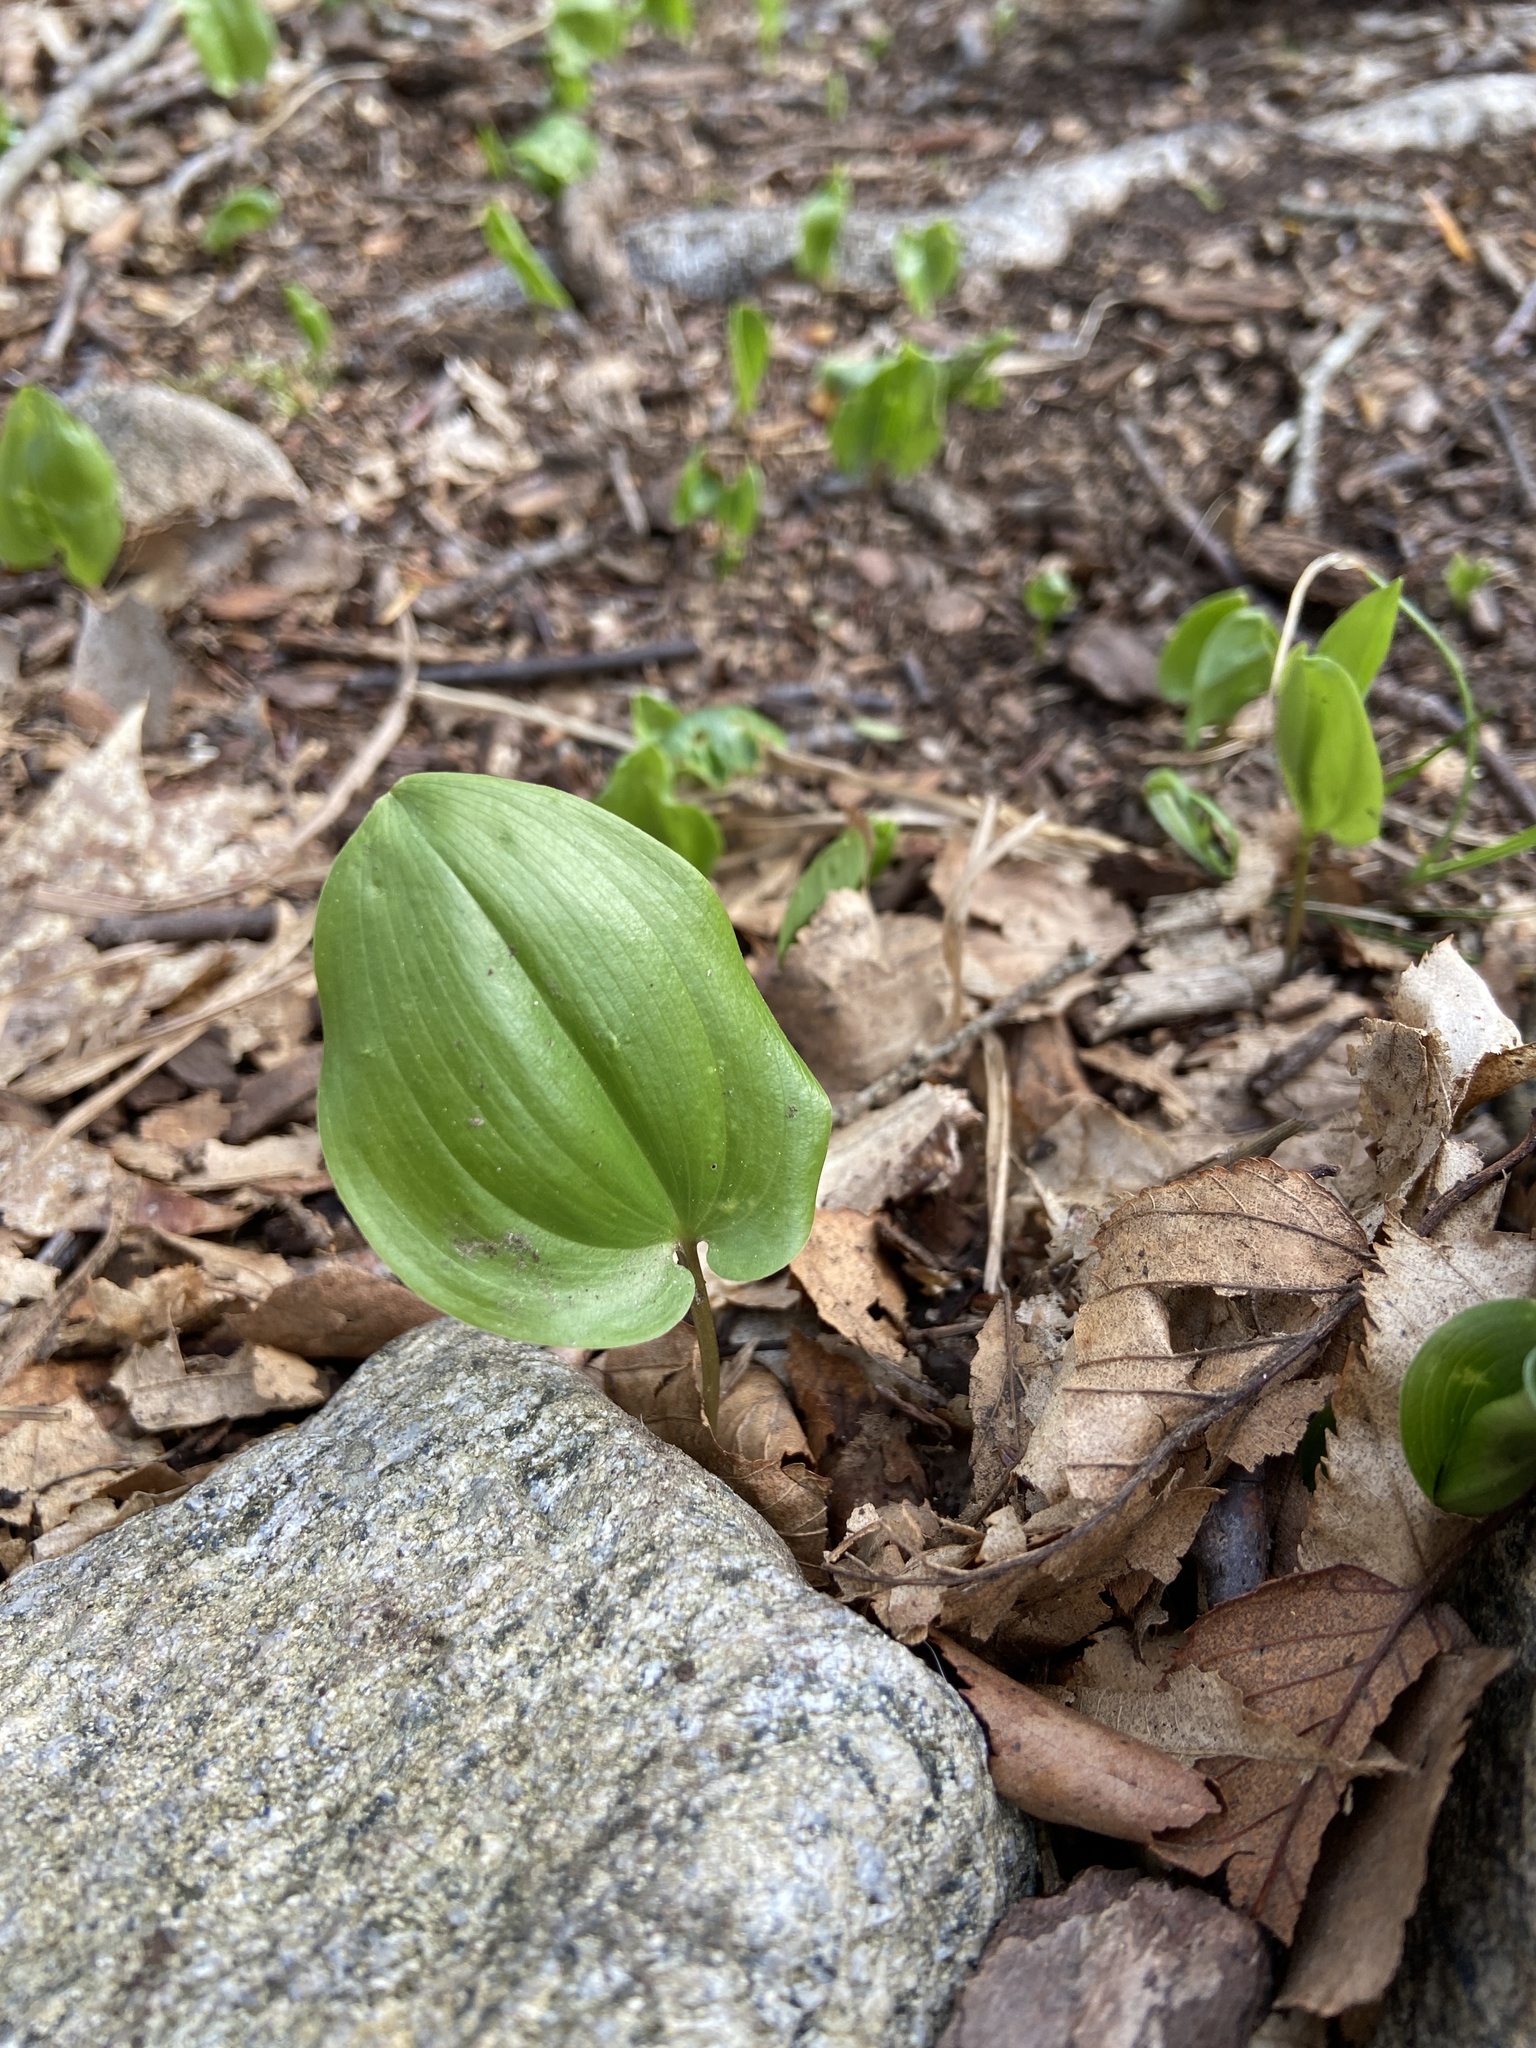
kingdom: Plantae
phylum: Tracheophyta
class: Liliopsida
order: Asparagales
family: Asparagaceae
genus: Maianthemum
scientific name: Maianthemum canadense
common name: False lily-of-the-valley
